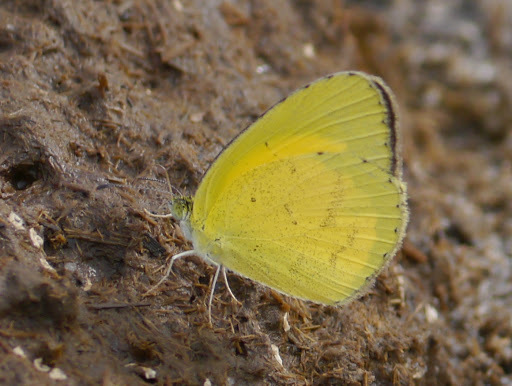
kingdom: Animalia
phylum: Arthropoda
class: Insecta
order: Lepidoptera
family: Pieridae
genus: Eurema
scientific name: Eurema brigitta
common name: Small grass yellow
